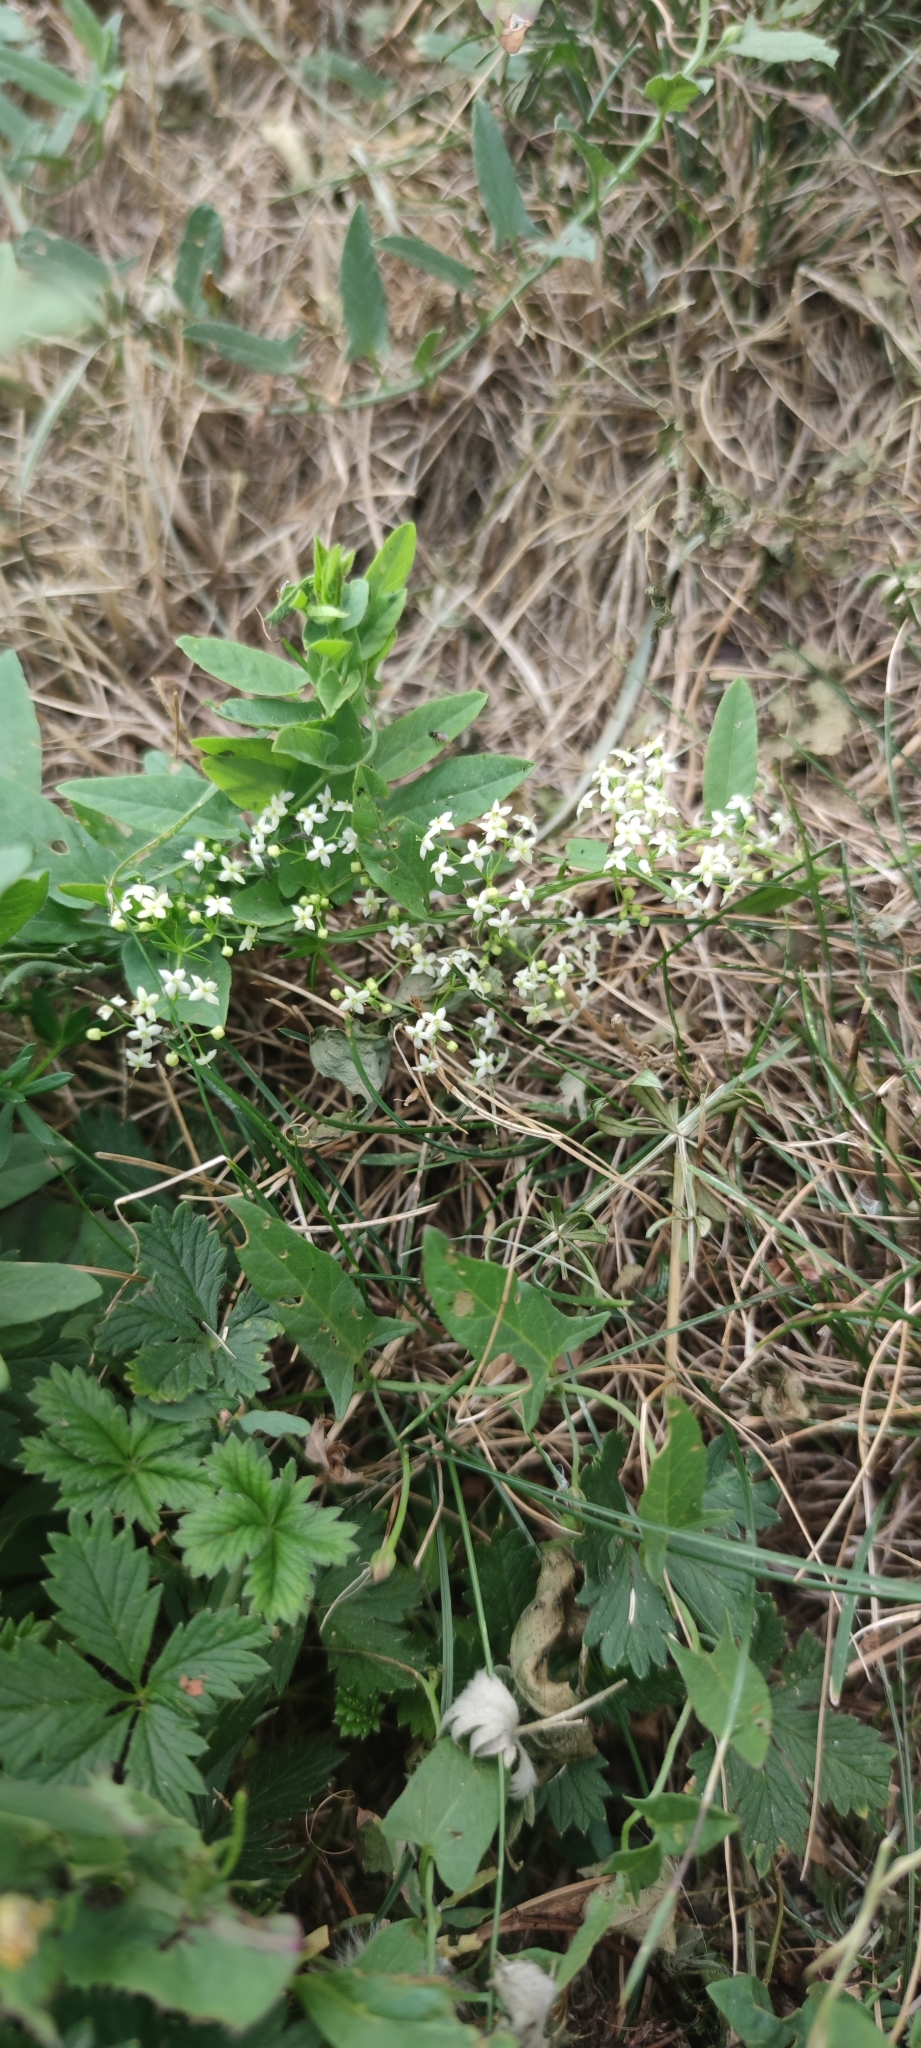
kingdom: Plantae
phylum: Tracheophyta
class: Magnoliopsida
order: Gentianales
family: Rubiaceae
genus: Galium
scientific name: Galium mollugo
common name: Hedge bedstraw
